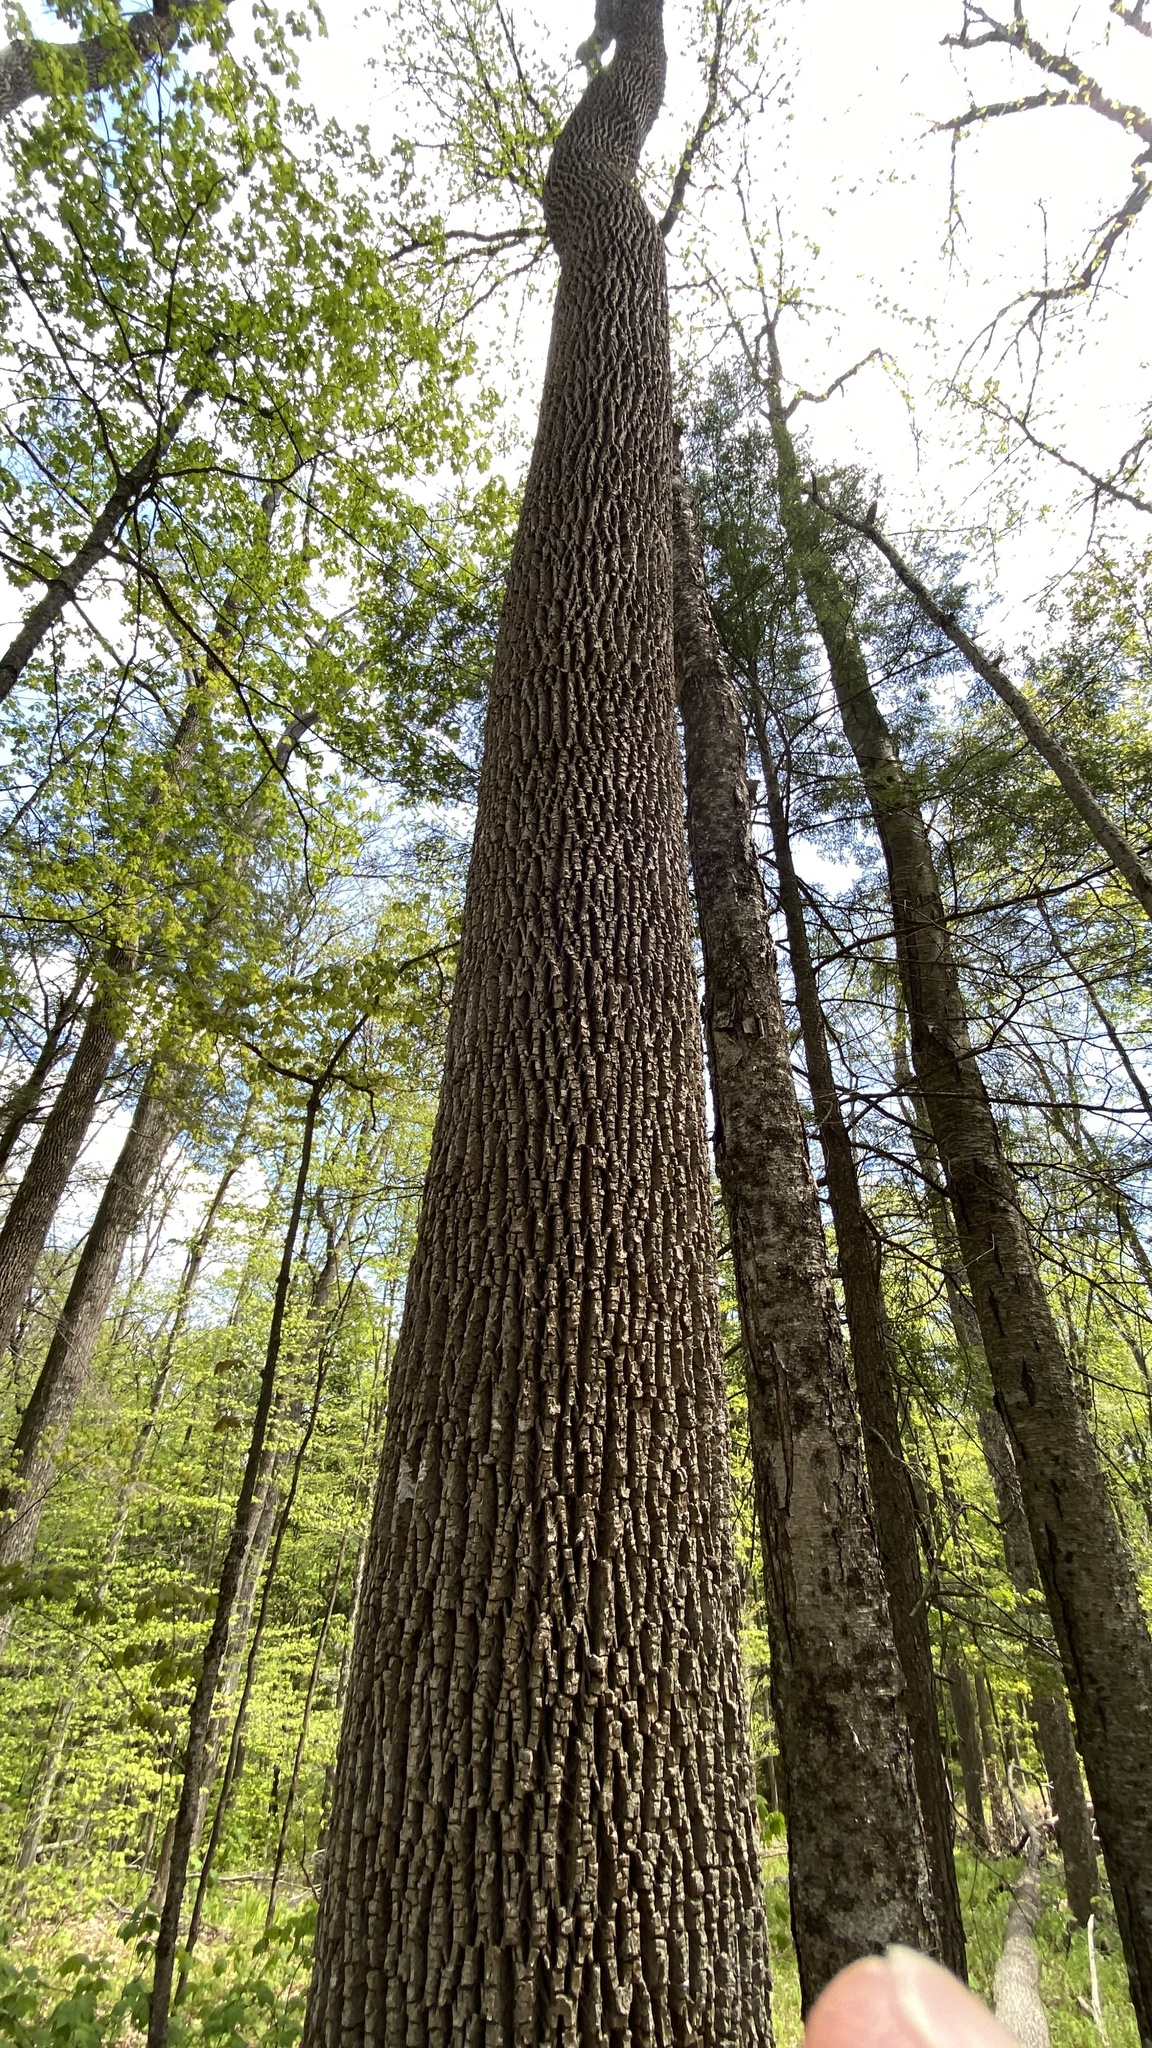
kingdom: Plantae
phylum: Tracheophyta
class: Magnoliopsida
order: Lamiales
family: Oleaceae
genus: Fraxinus
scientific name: Fraxinus americana
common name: White ash
